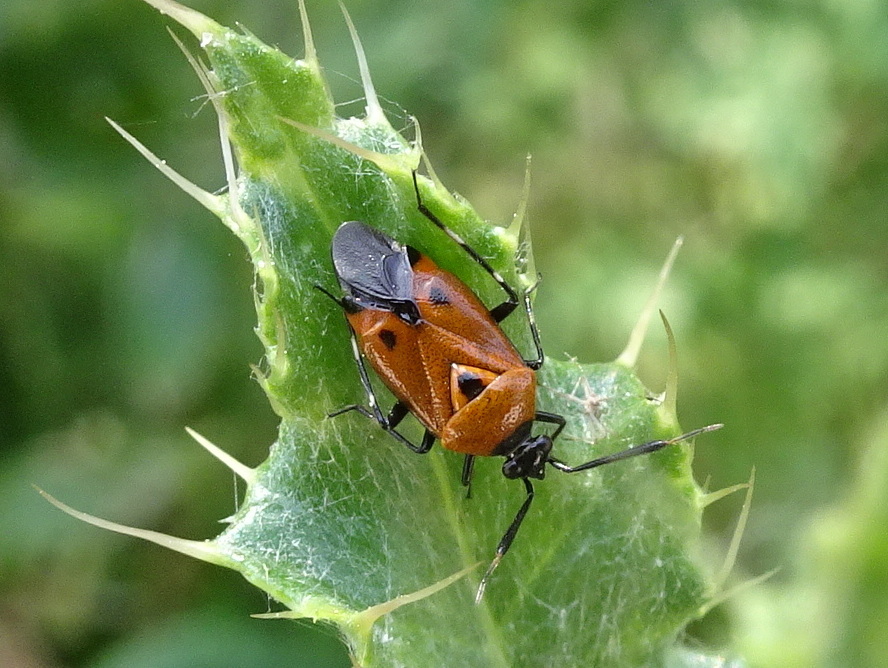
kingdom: Animalia
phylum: Arthropoda
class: Insecta
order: Hemiptera
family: Miridae
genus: Deraeocoris
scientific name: Deraeocoris punctum
